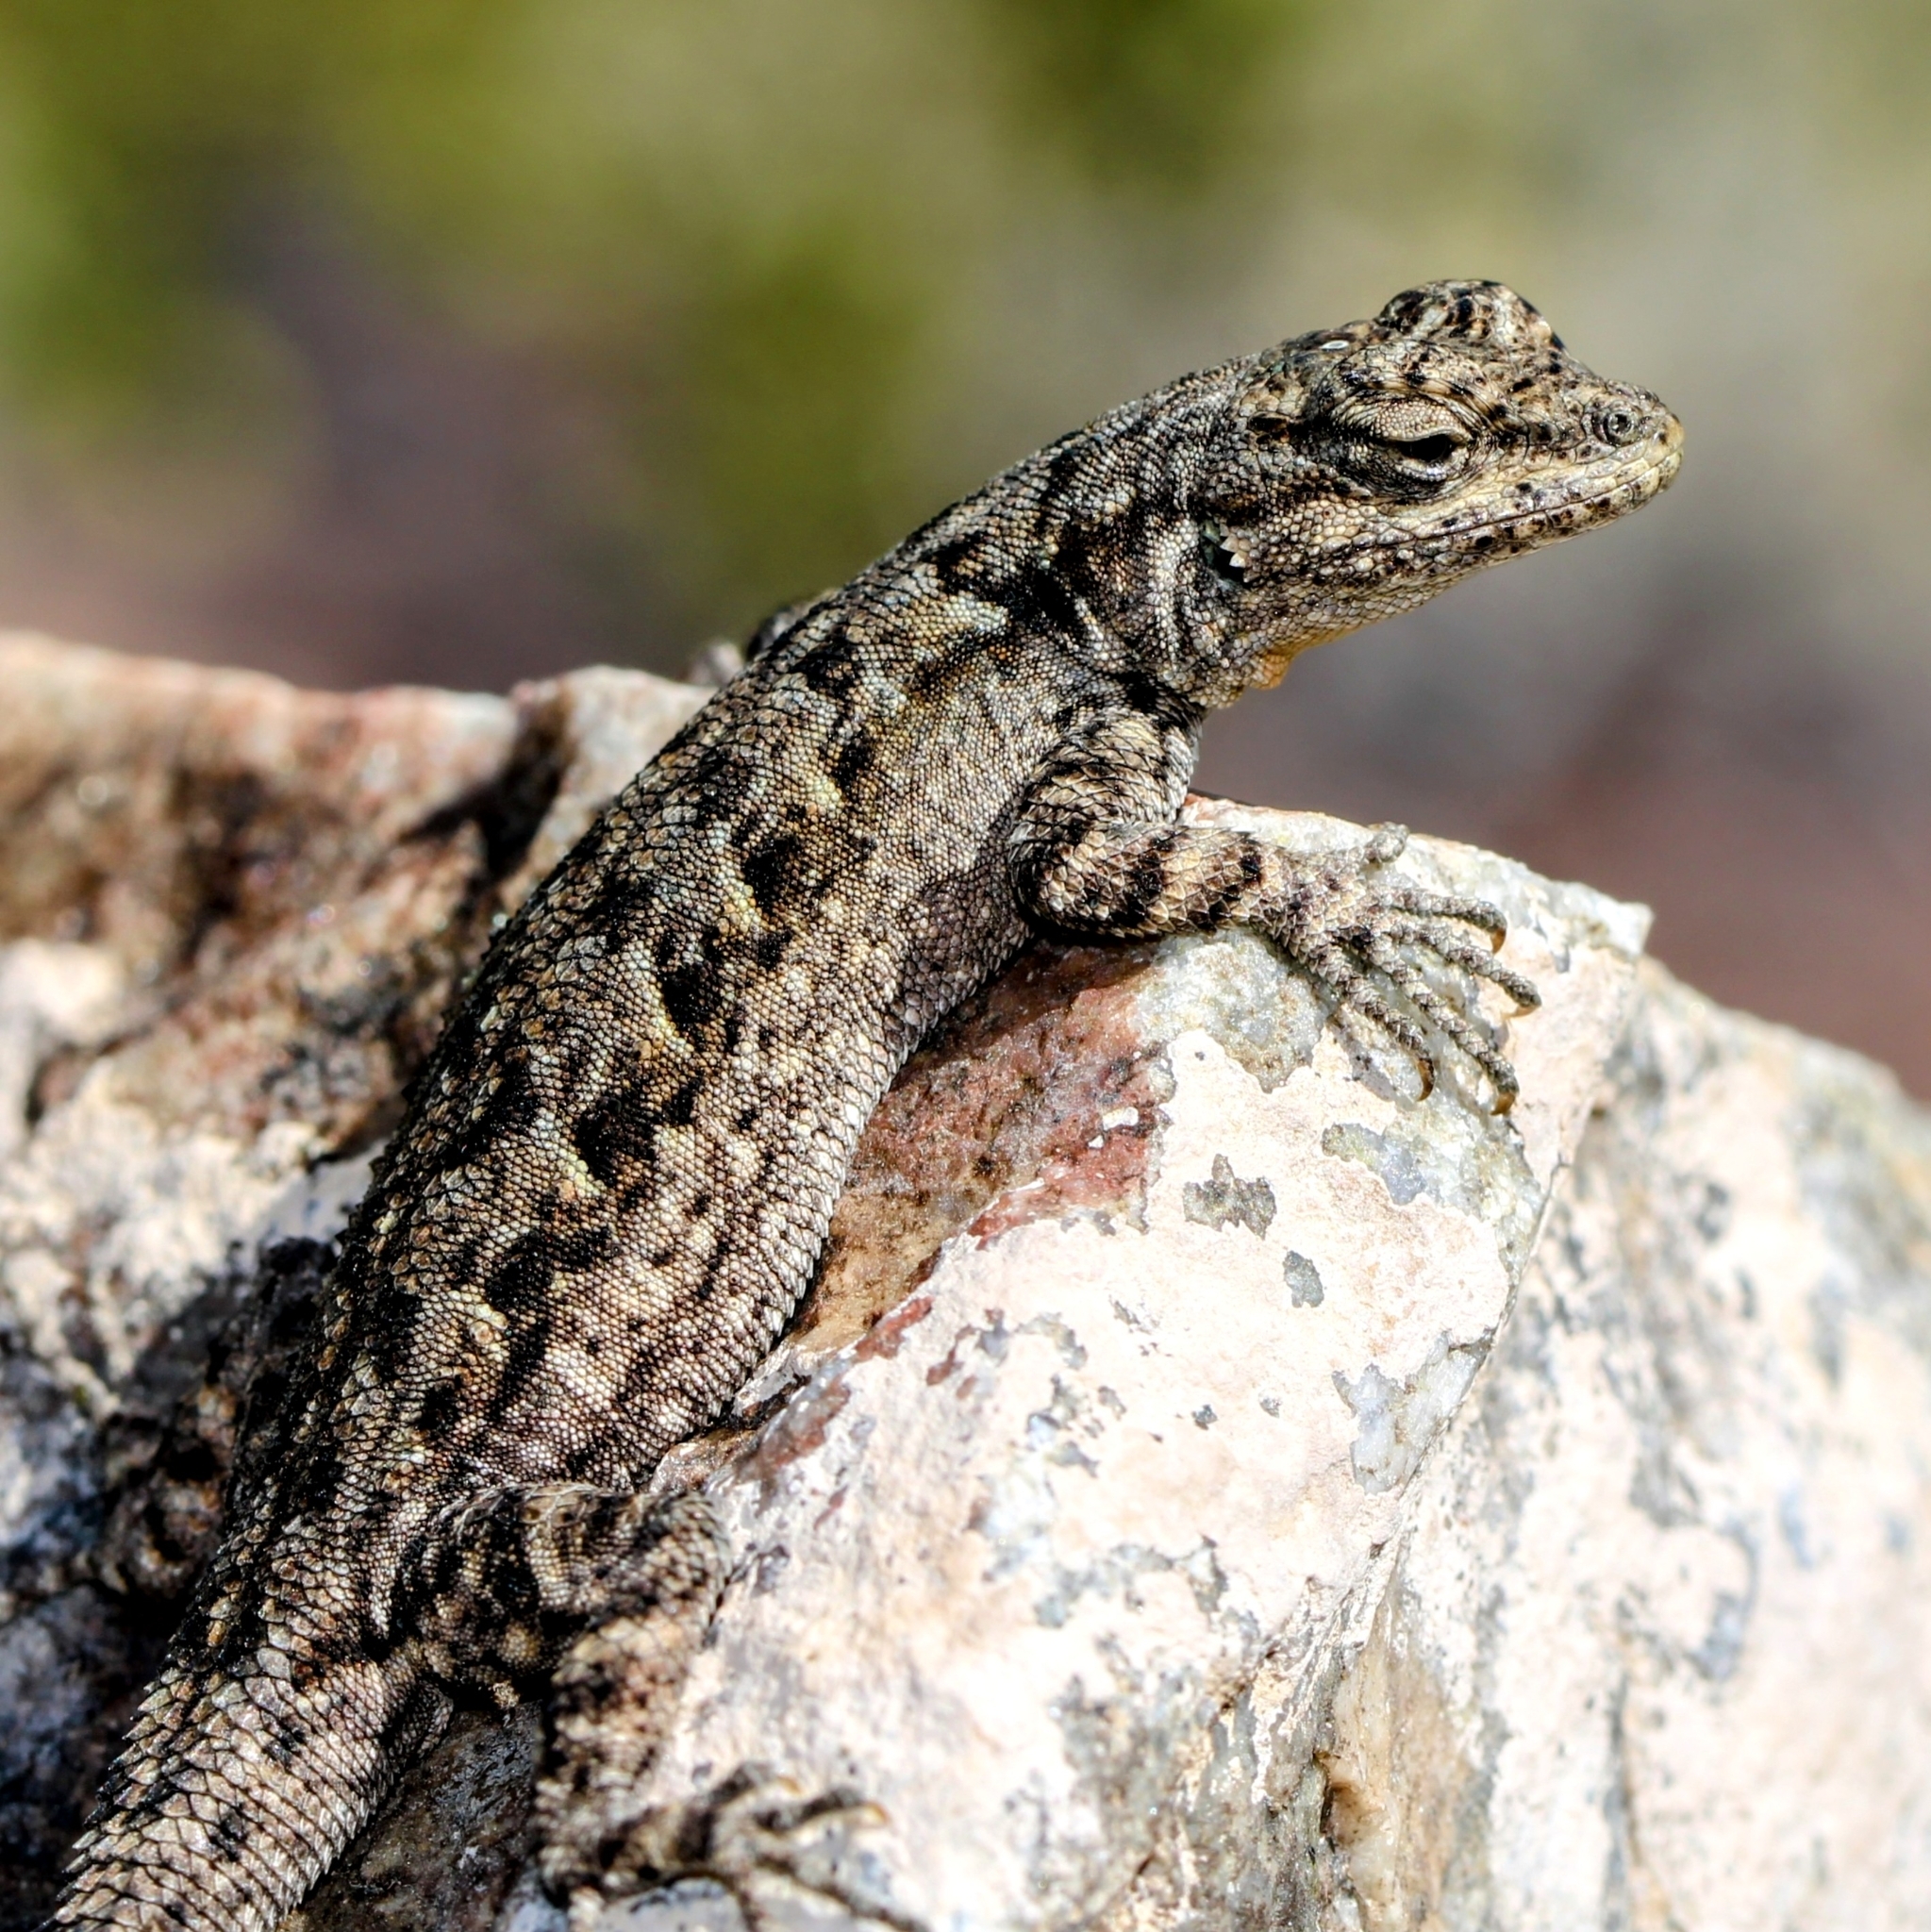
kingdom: Animalia
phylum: Chordata
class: Squamata
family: Phrynosomatidae
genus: Urosaurus
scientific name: Urosaurus ornatus
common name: Ornate tree lizard
